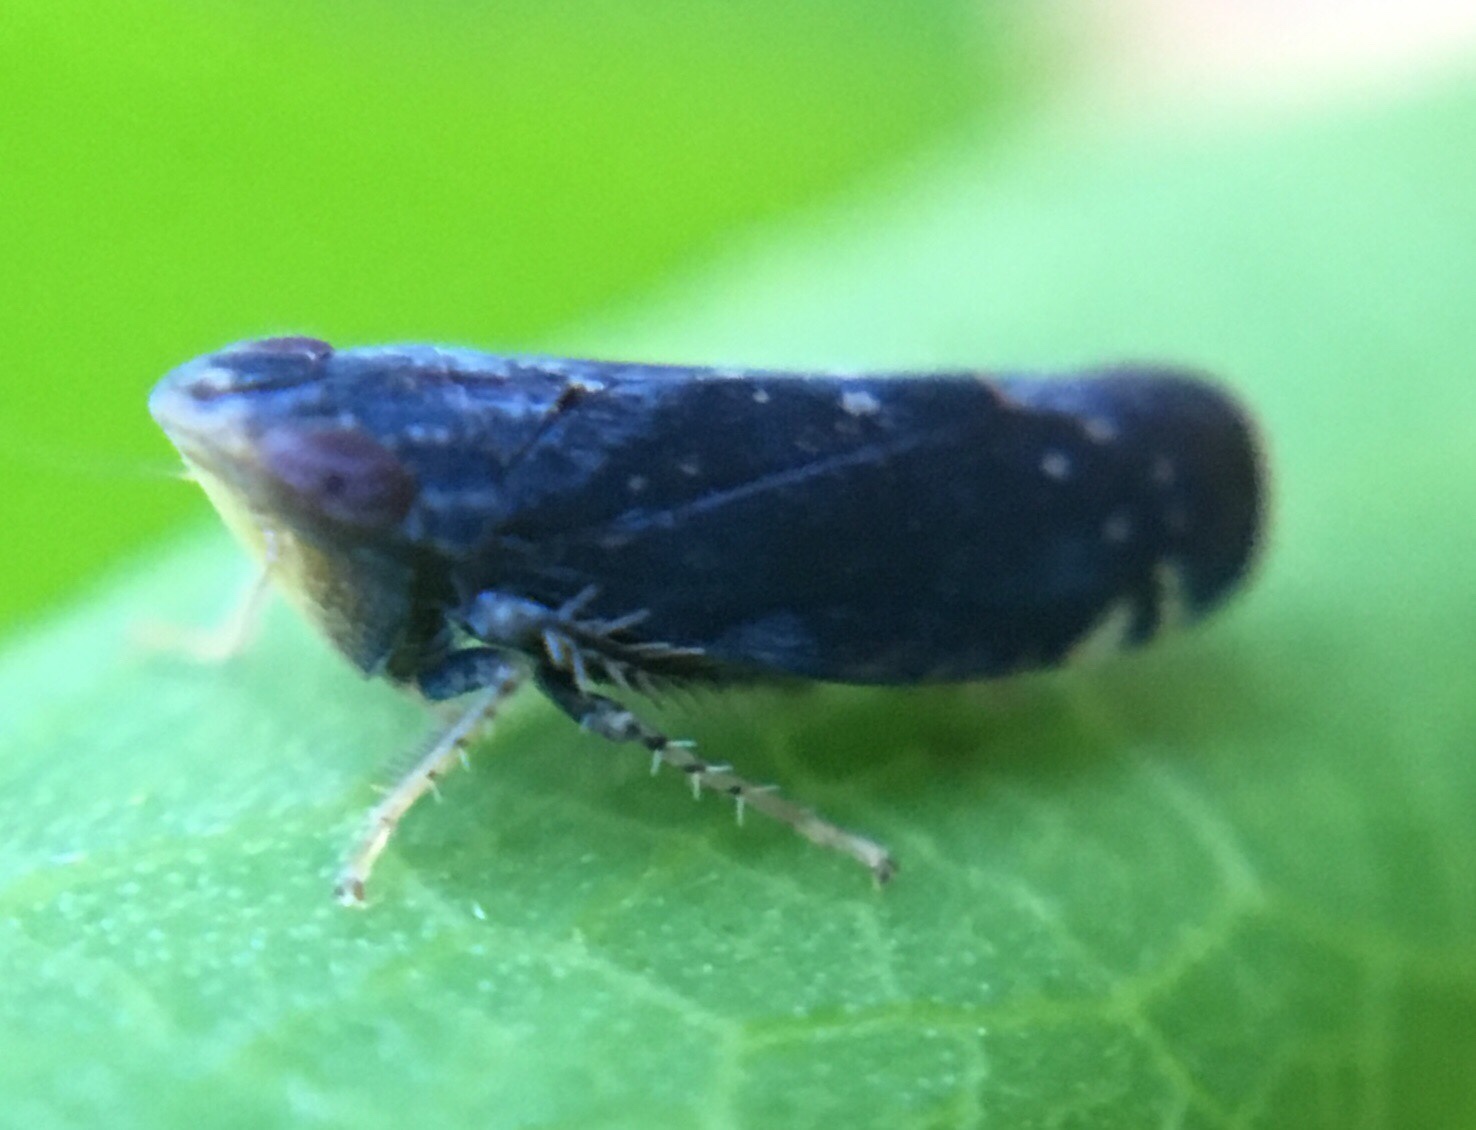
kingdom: Animalia
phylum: Arthropoda
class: Insecta
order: Hemiptera
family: Cicadellidae
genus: Scaphytopius
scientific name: Scaphytopius frontalis
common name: The yellow-faced leafhopper
